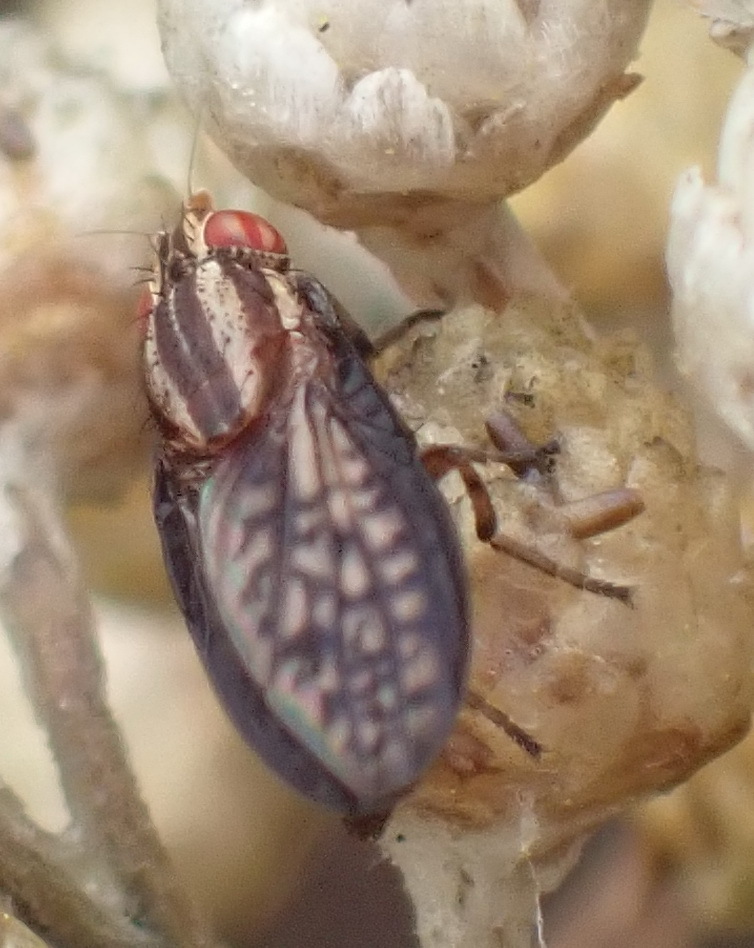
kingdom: Animalia
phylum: Arthropoda
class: Insecta
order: Diptera
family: Lauxaniidae
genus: Sapromyza
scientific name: Sapromyza guttulata
